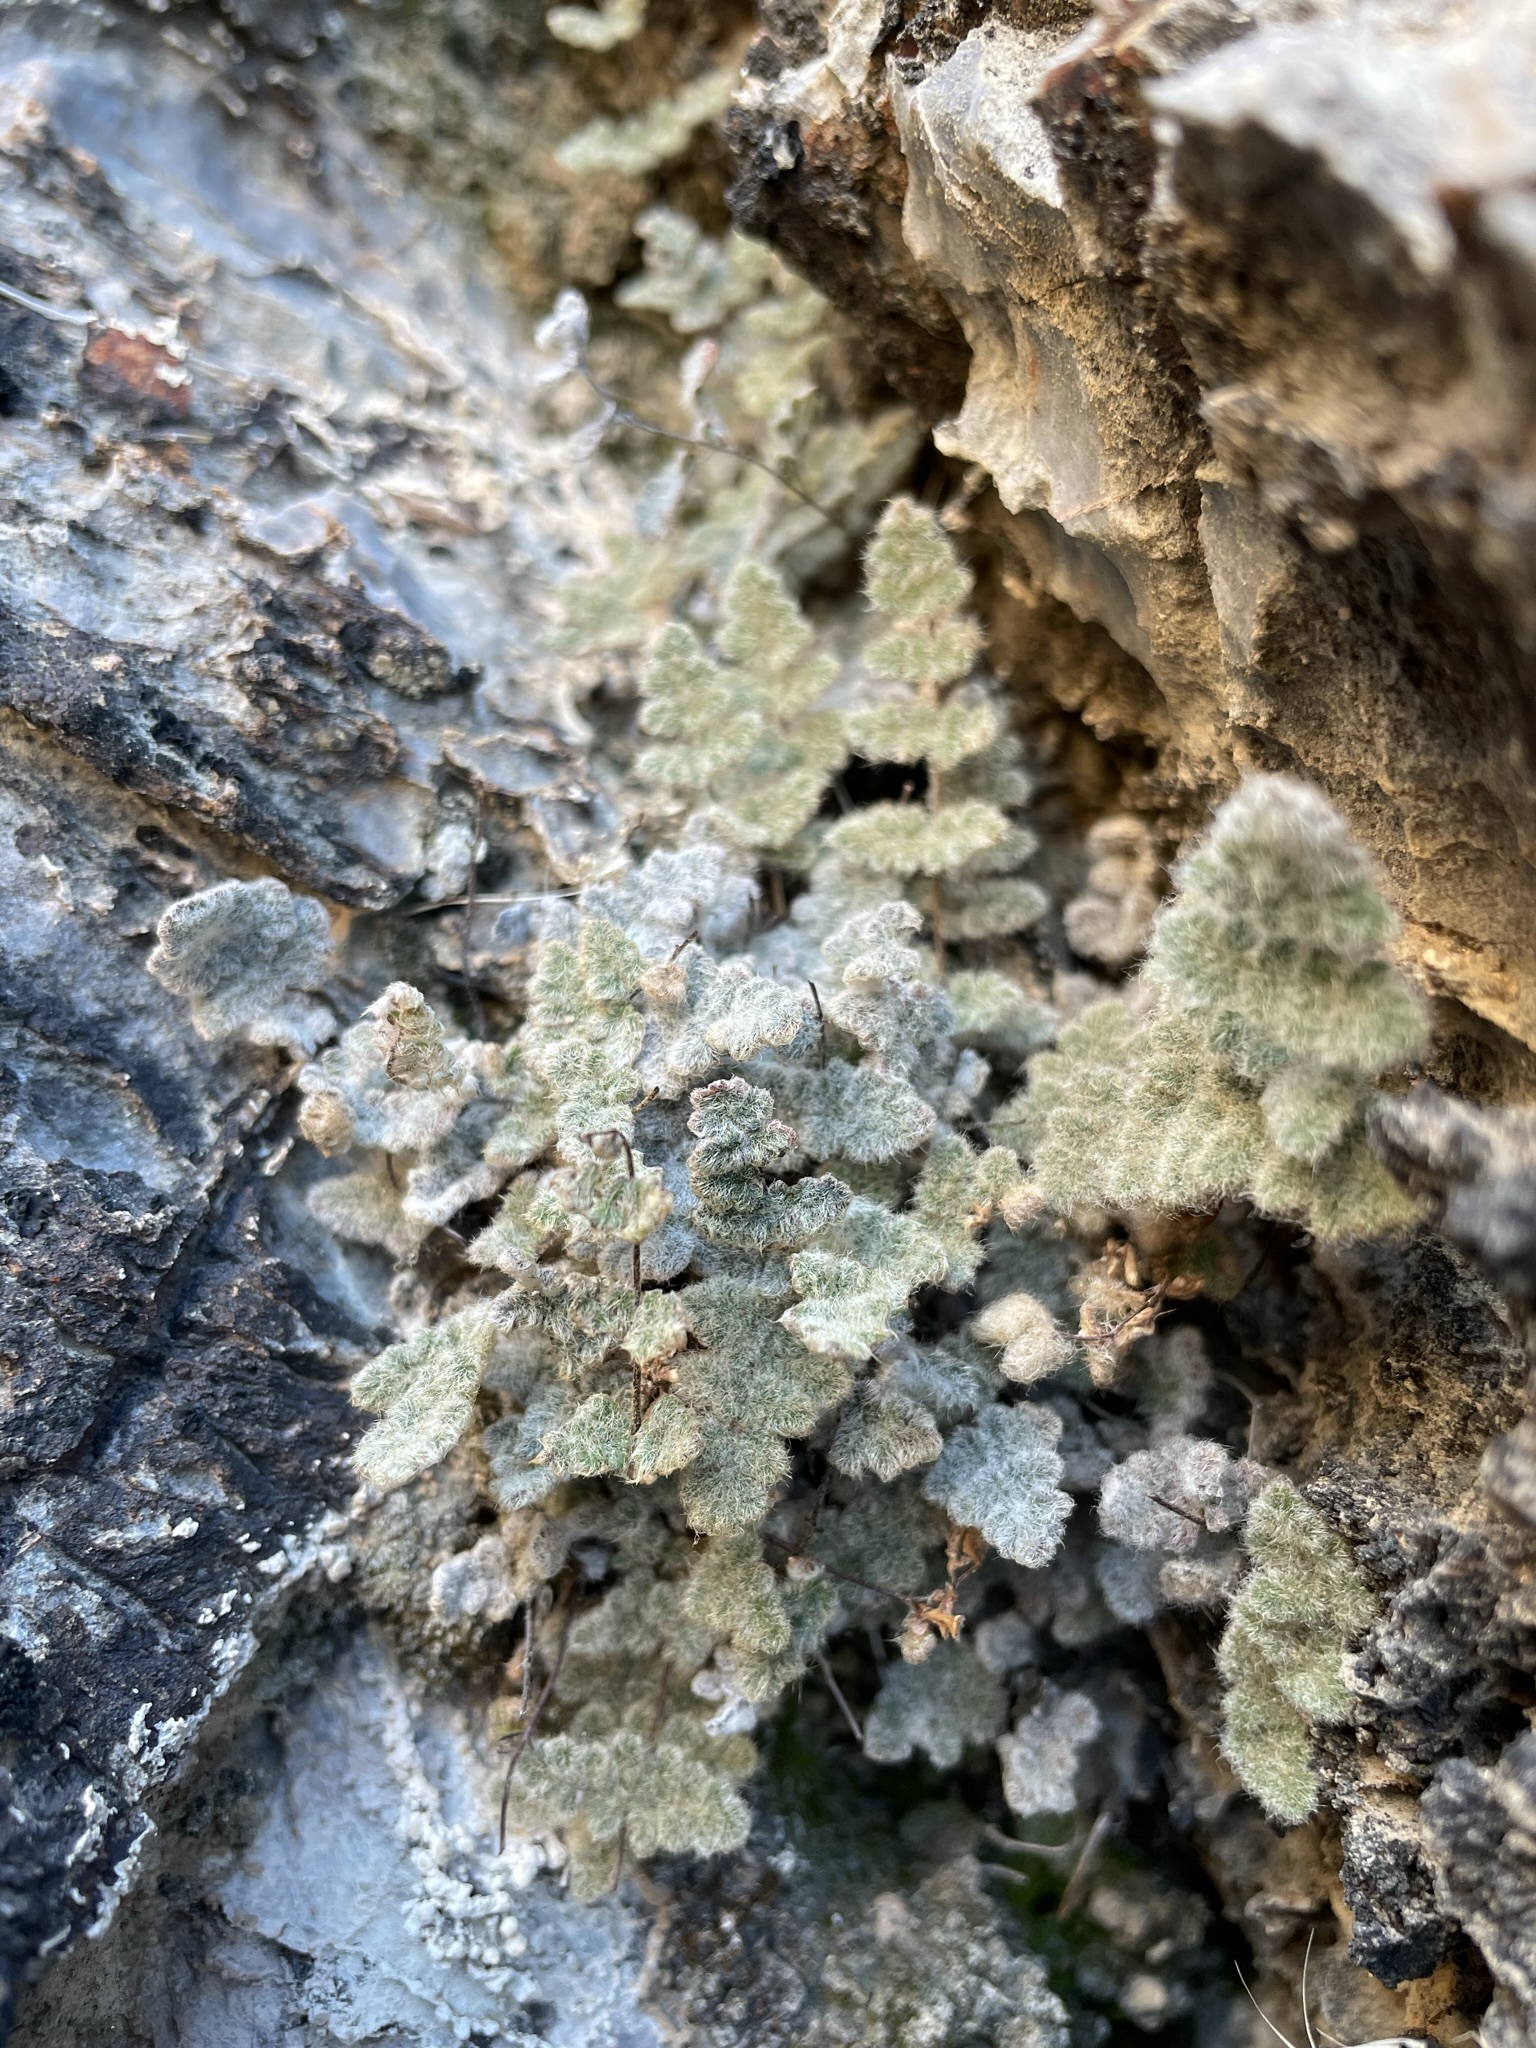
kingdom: Plantae
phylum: Tracheophyta
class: Polypodiopsida
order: Polypodiales
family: Pteridaceae
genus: Myriopteris
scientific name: Myriopteris parryi
